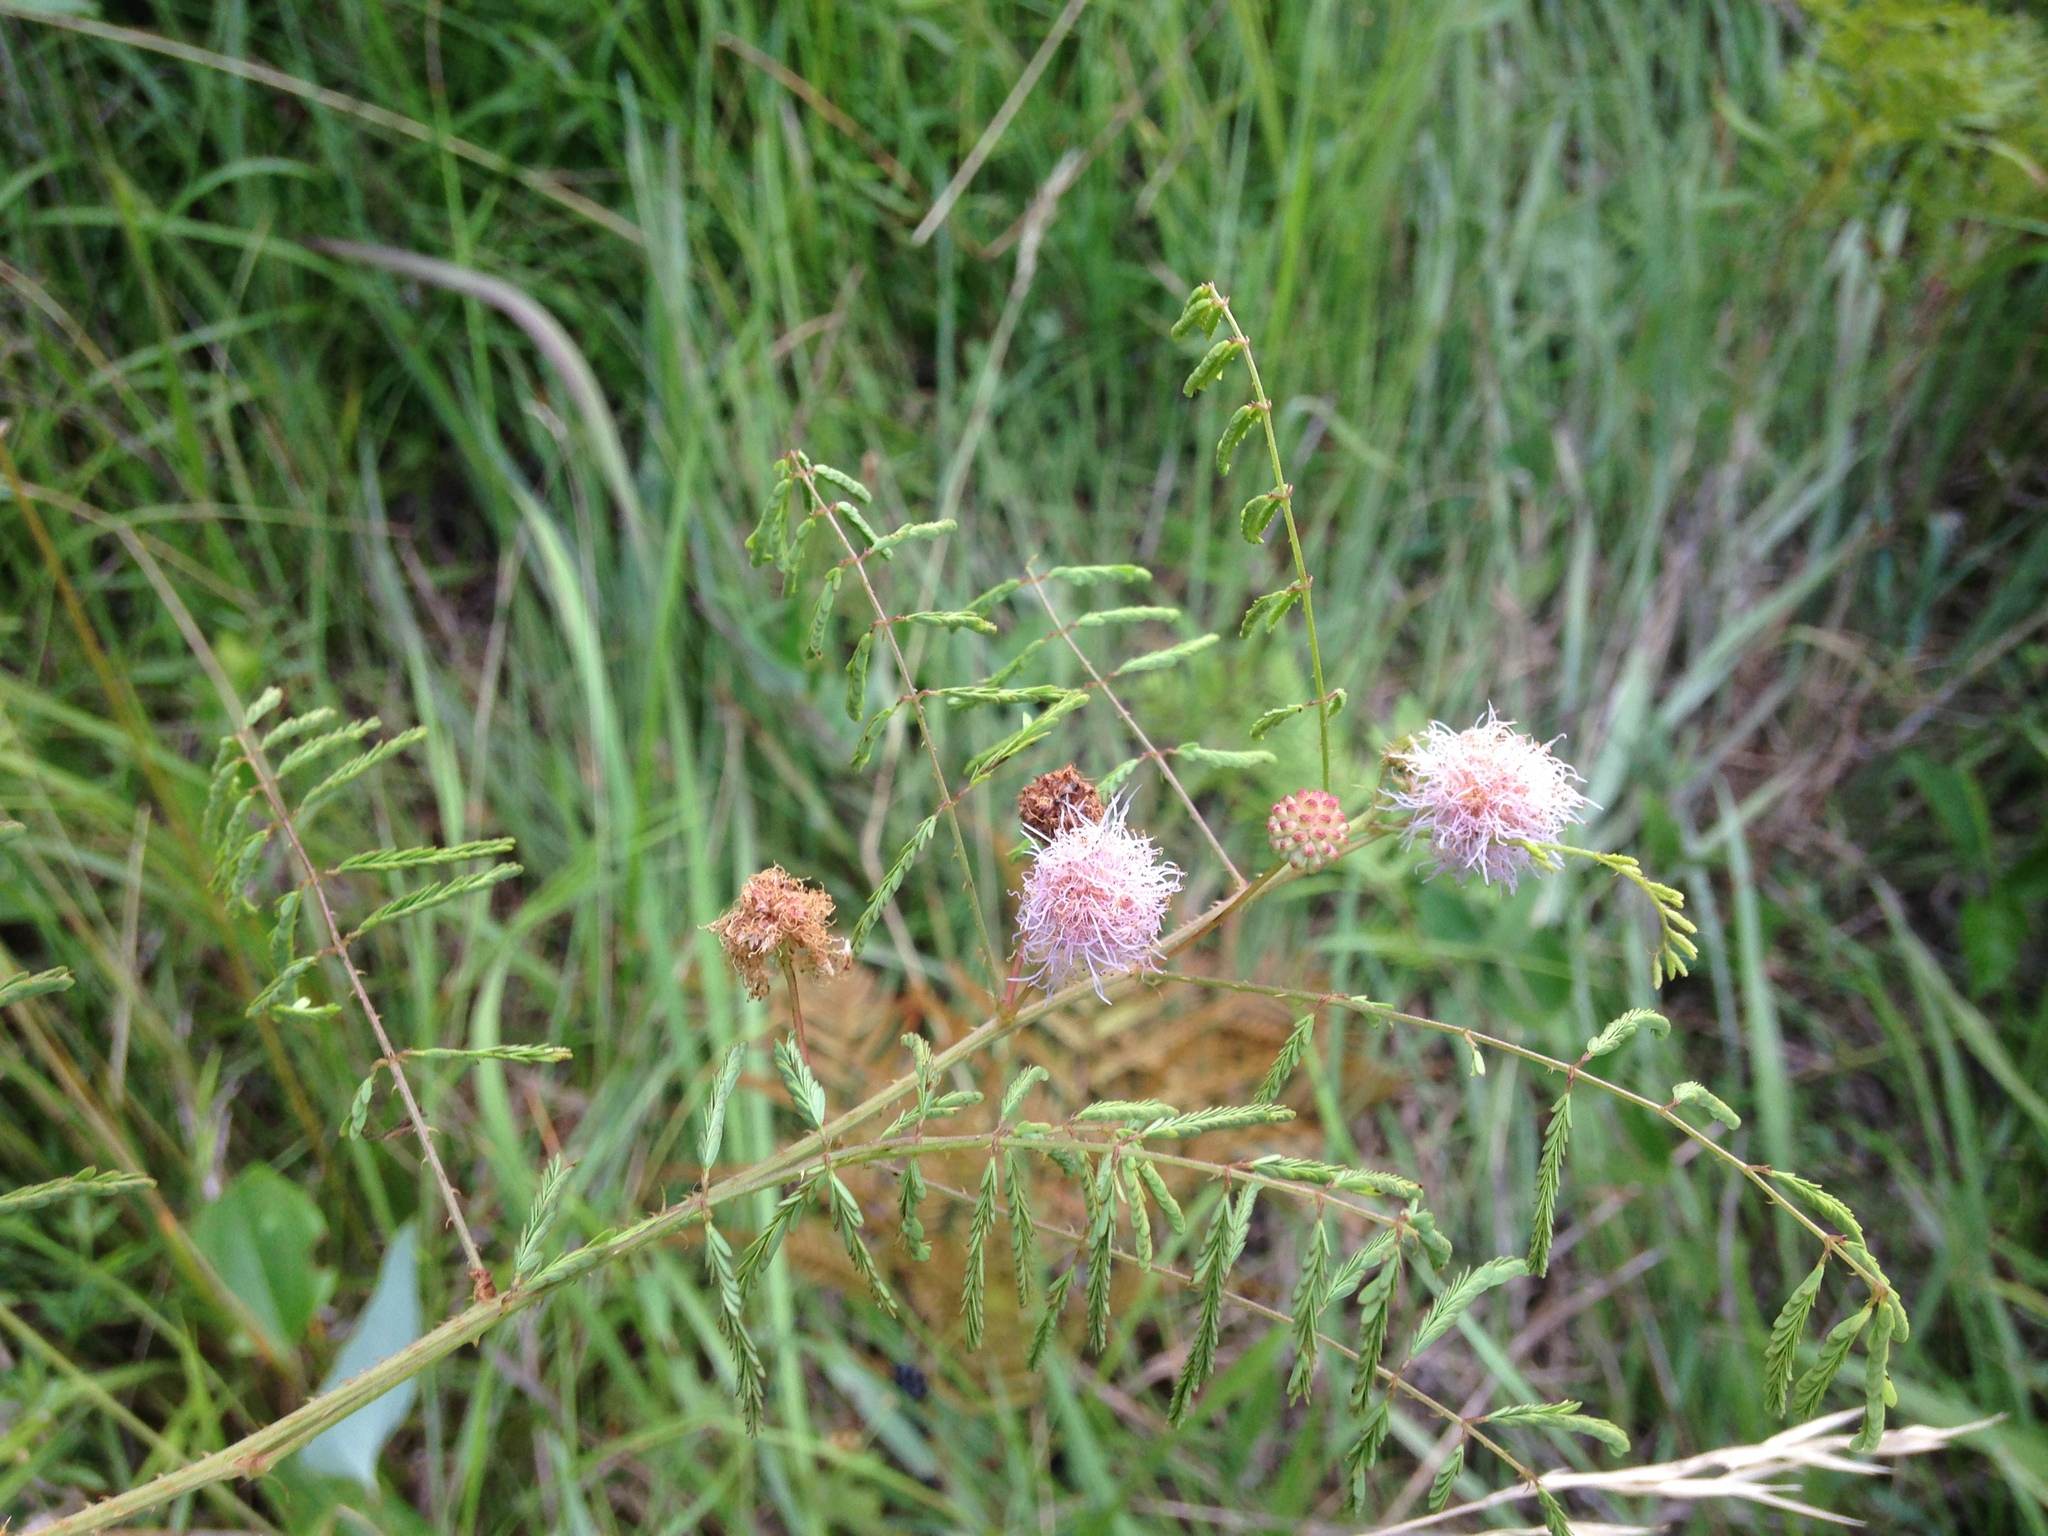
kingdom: Plantae
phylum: Tracheophyta
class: Magnoliopsida
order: Fabales
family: Fabaceae
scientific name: Fabaceae
